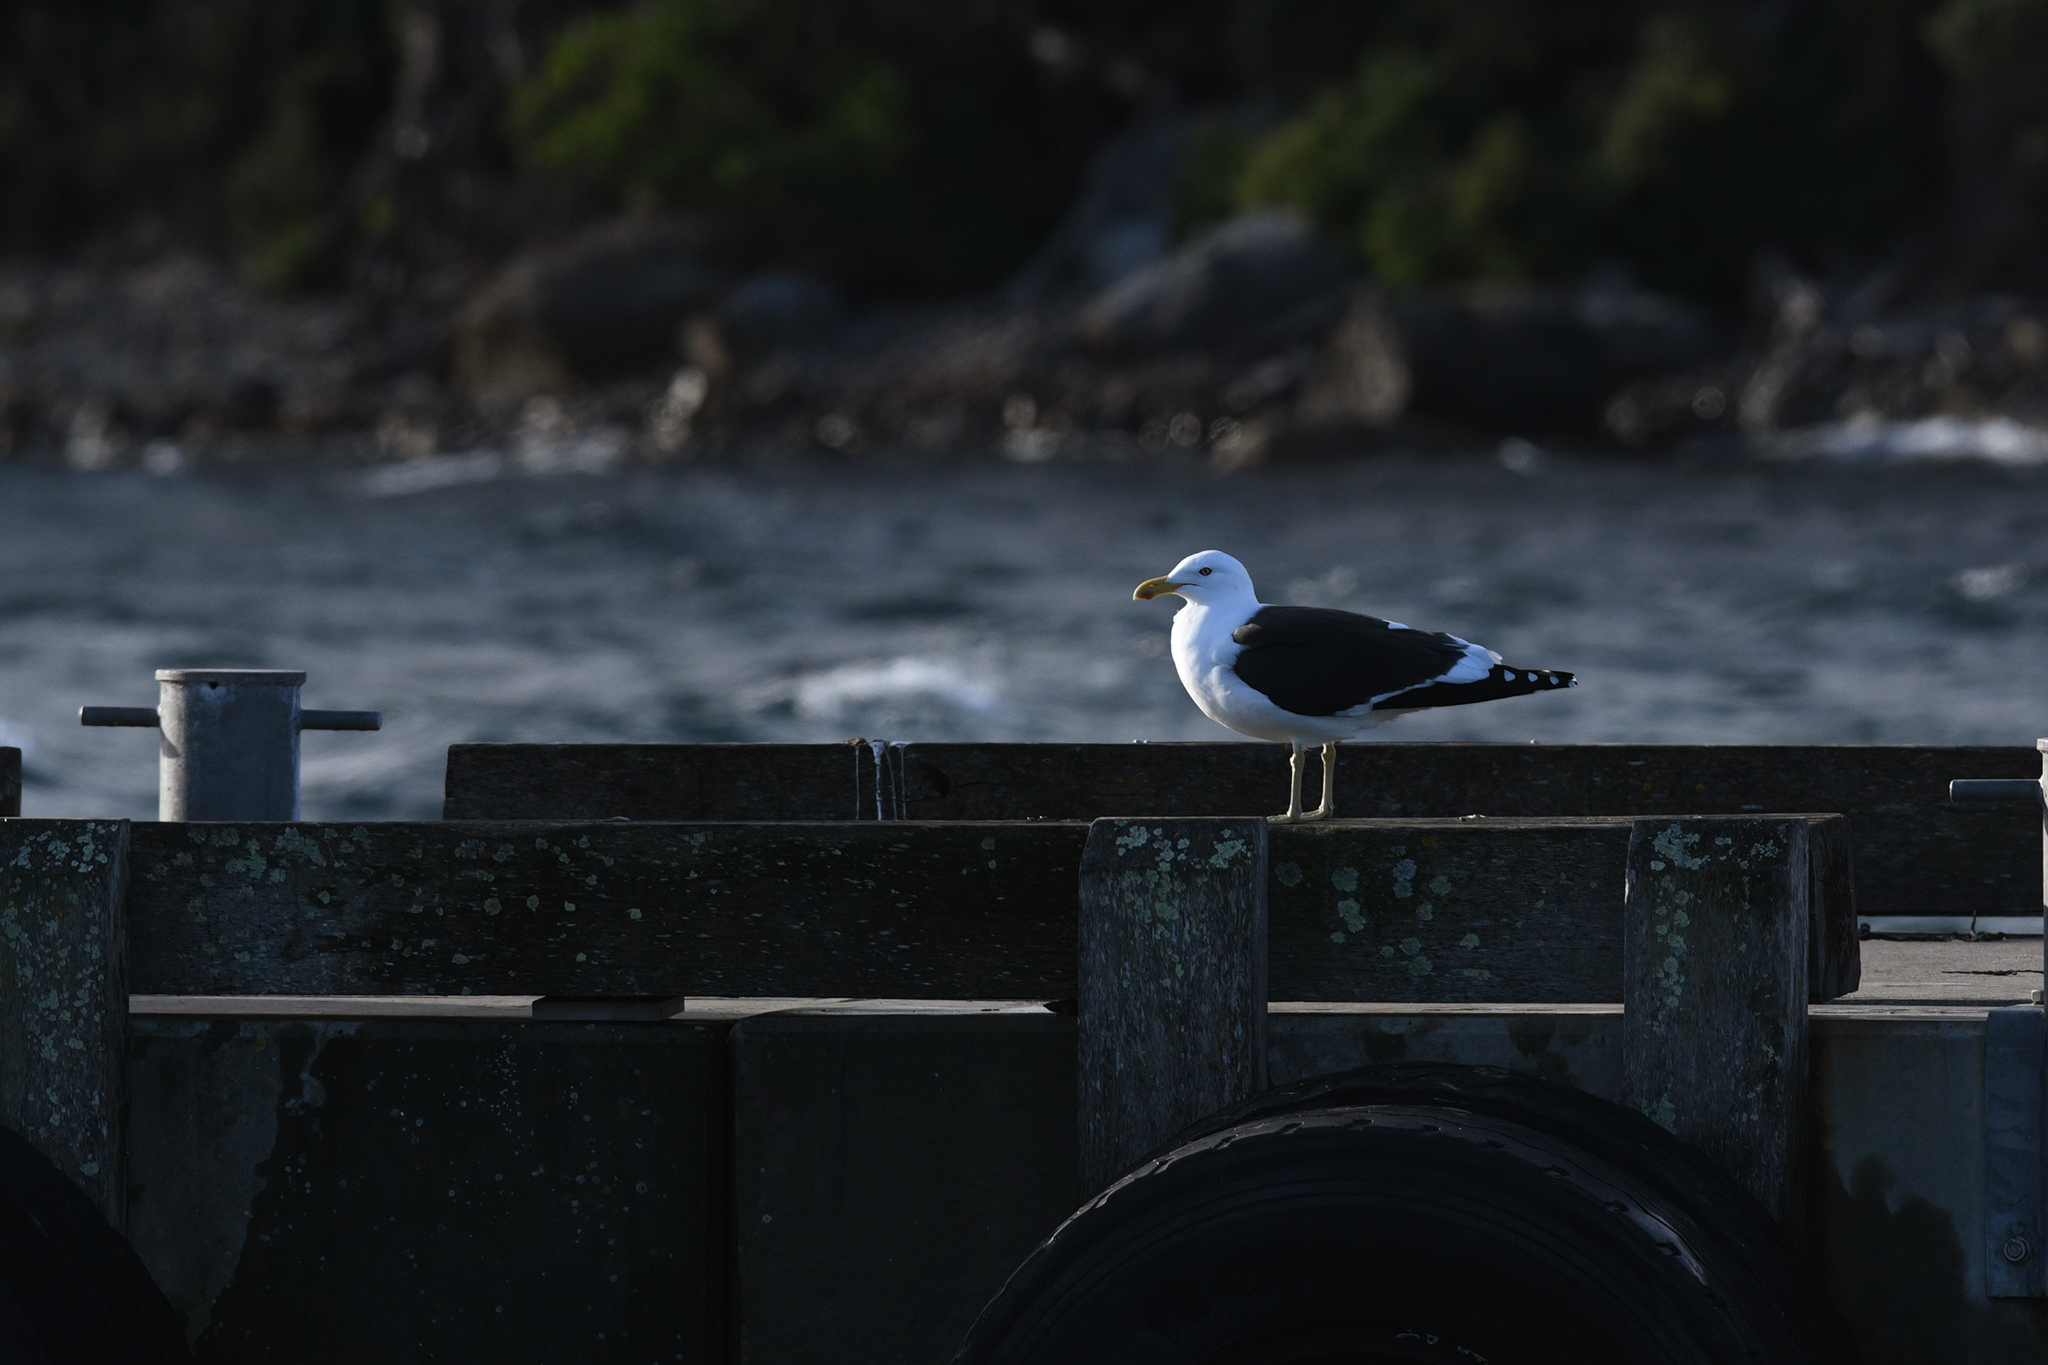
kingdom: Animalia
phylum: Chordata
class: Aves
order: Charadriiformes
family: Laridae
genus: Larus
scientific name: Larus dominicanus
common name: Kelp gull
